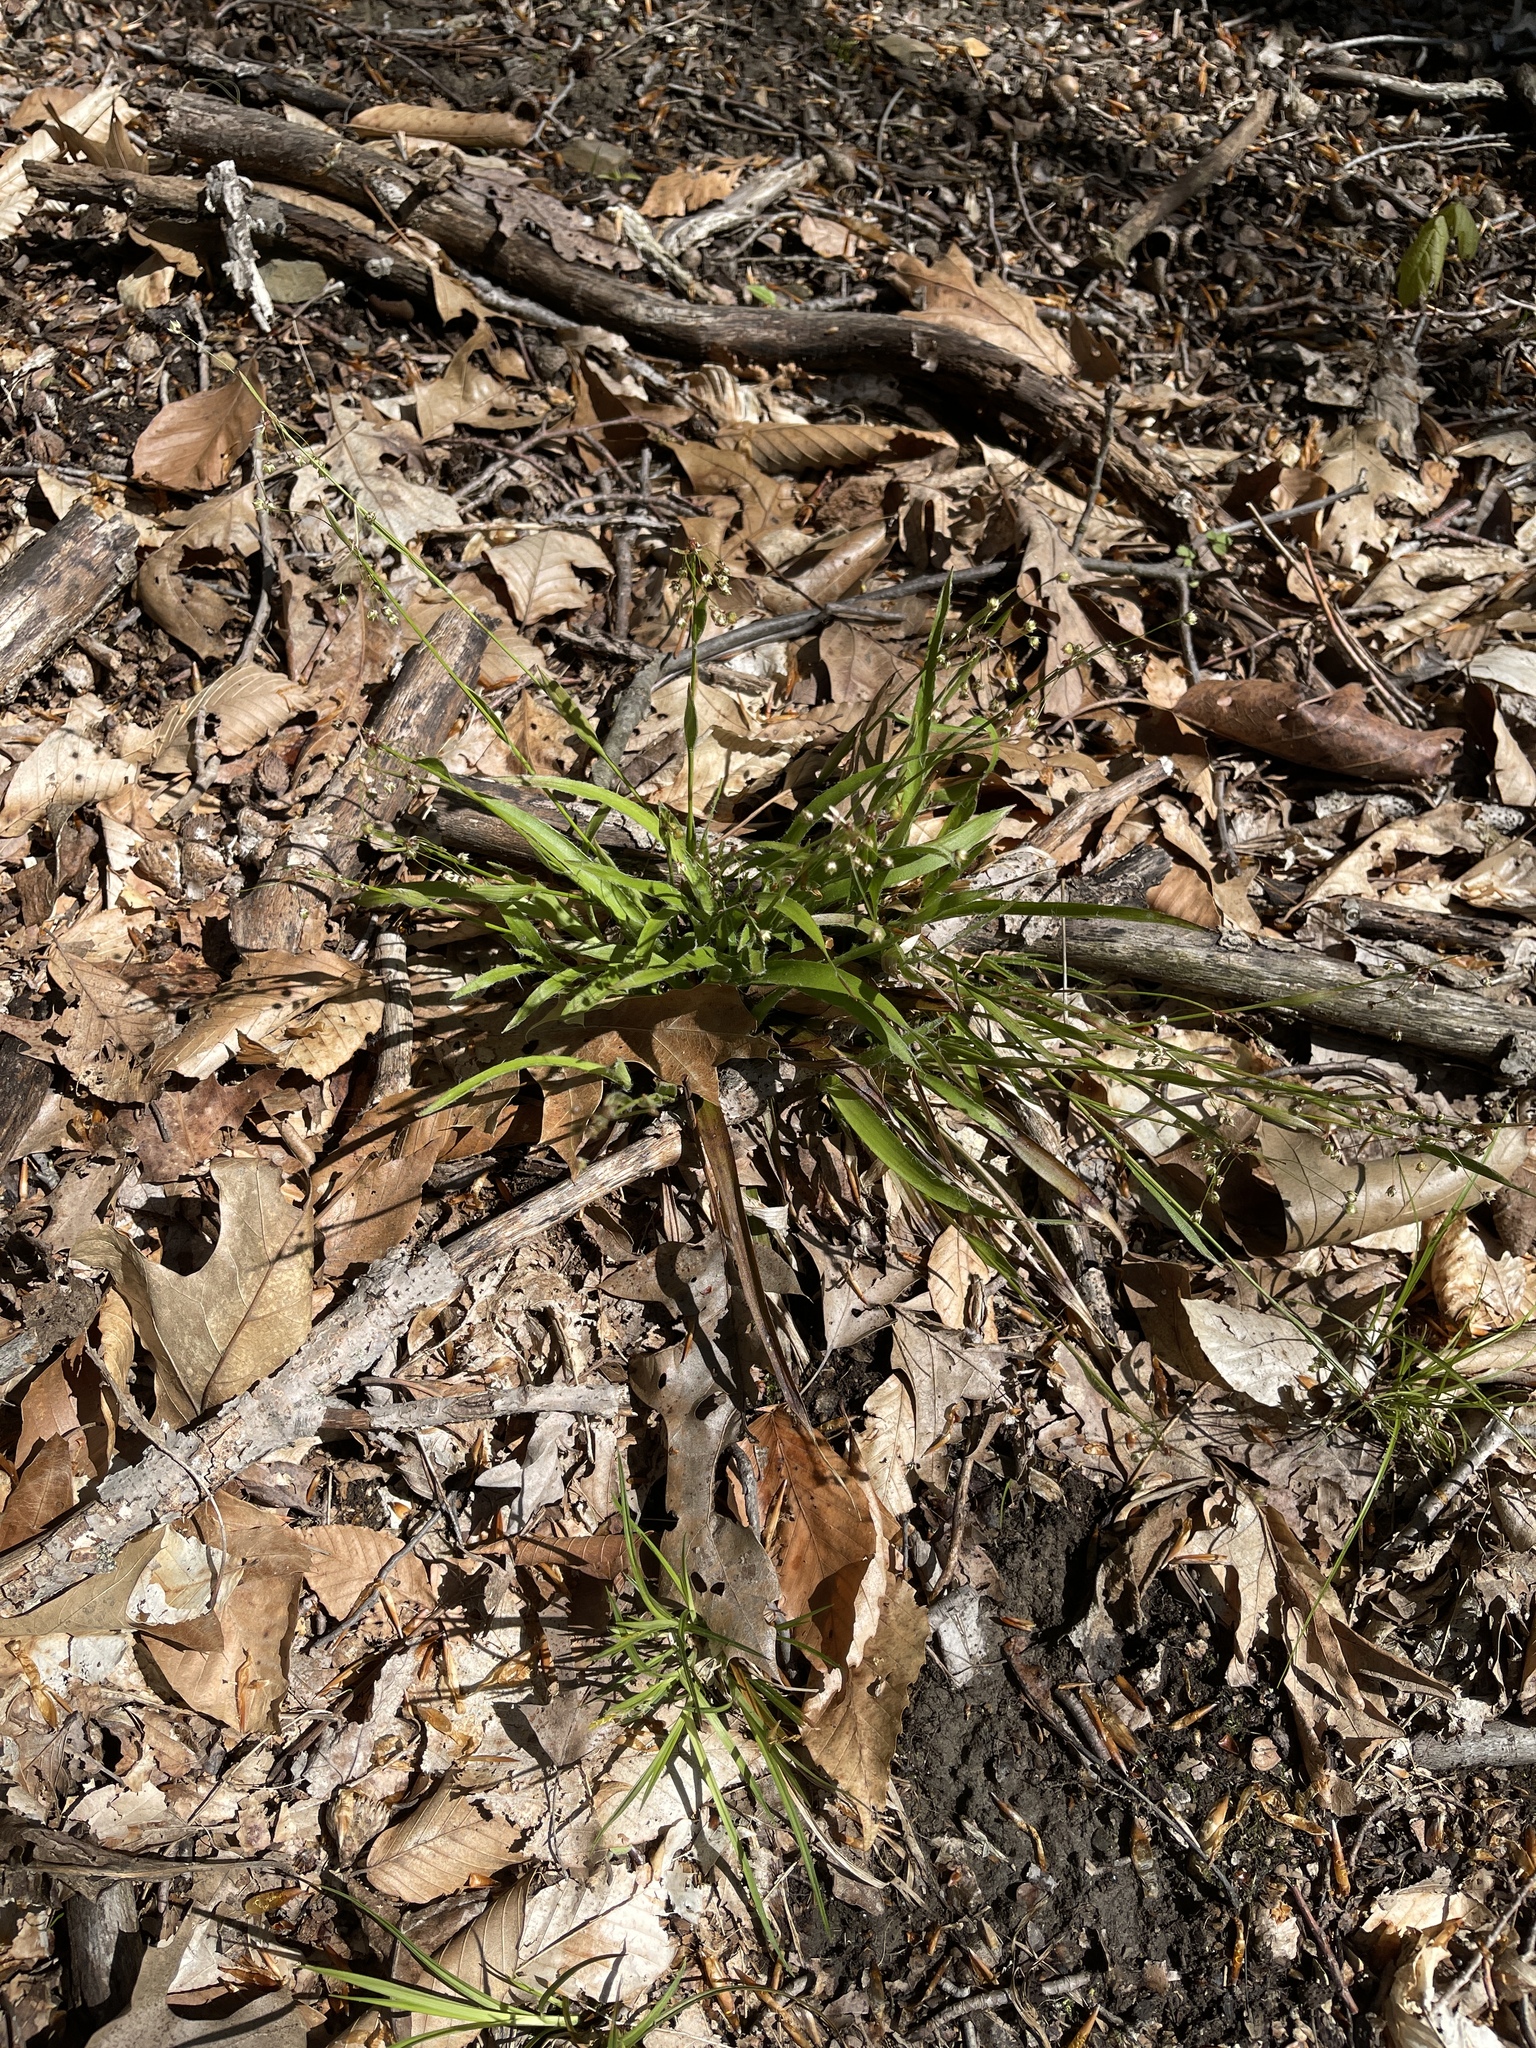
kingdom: Plantae
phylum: Tracheophyta
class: Liliopsida
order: Poales
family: Juncaceae
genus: Luzula
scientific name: Luzula acuminata
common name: Hairy woodrush
